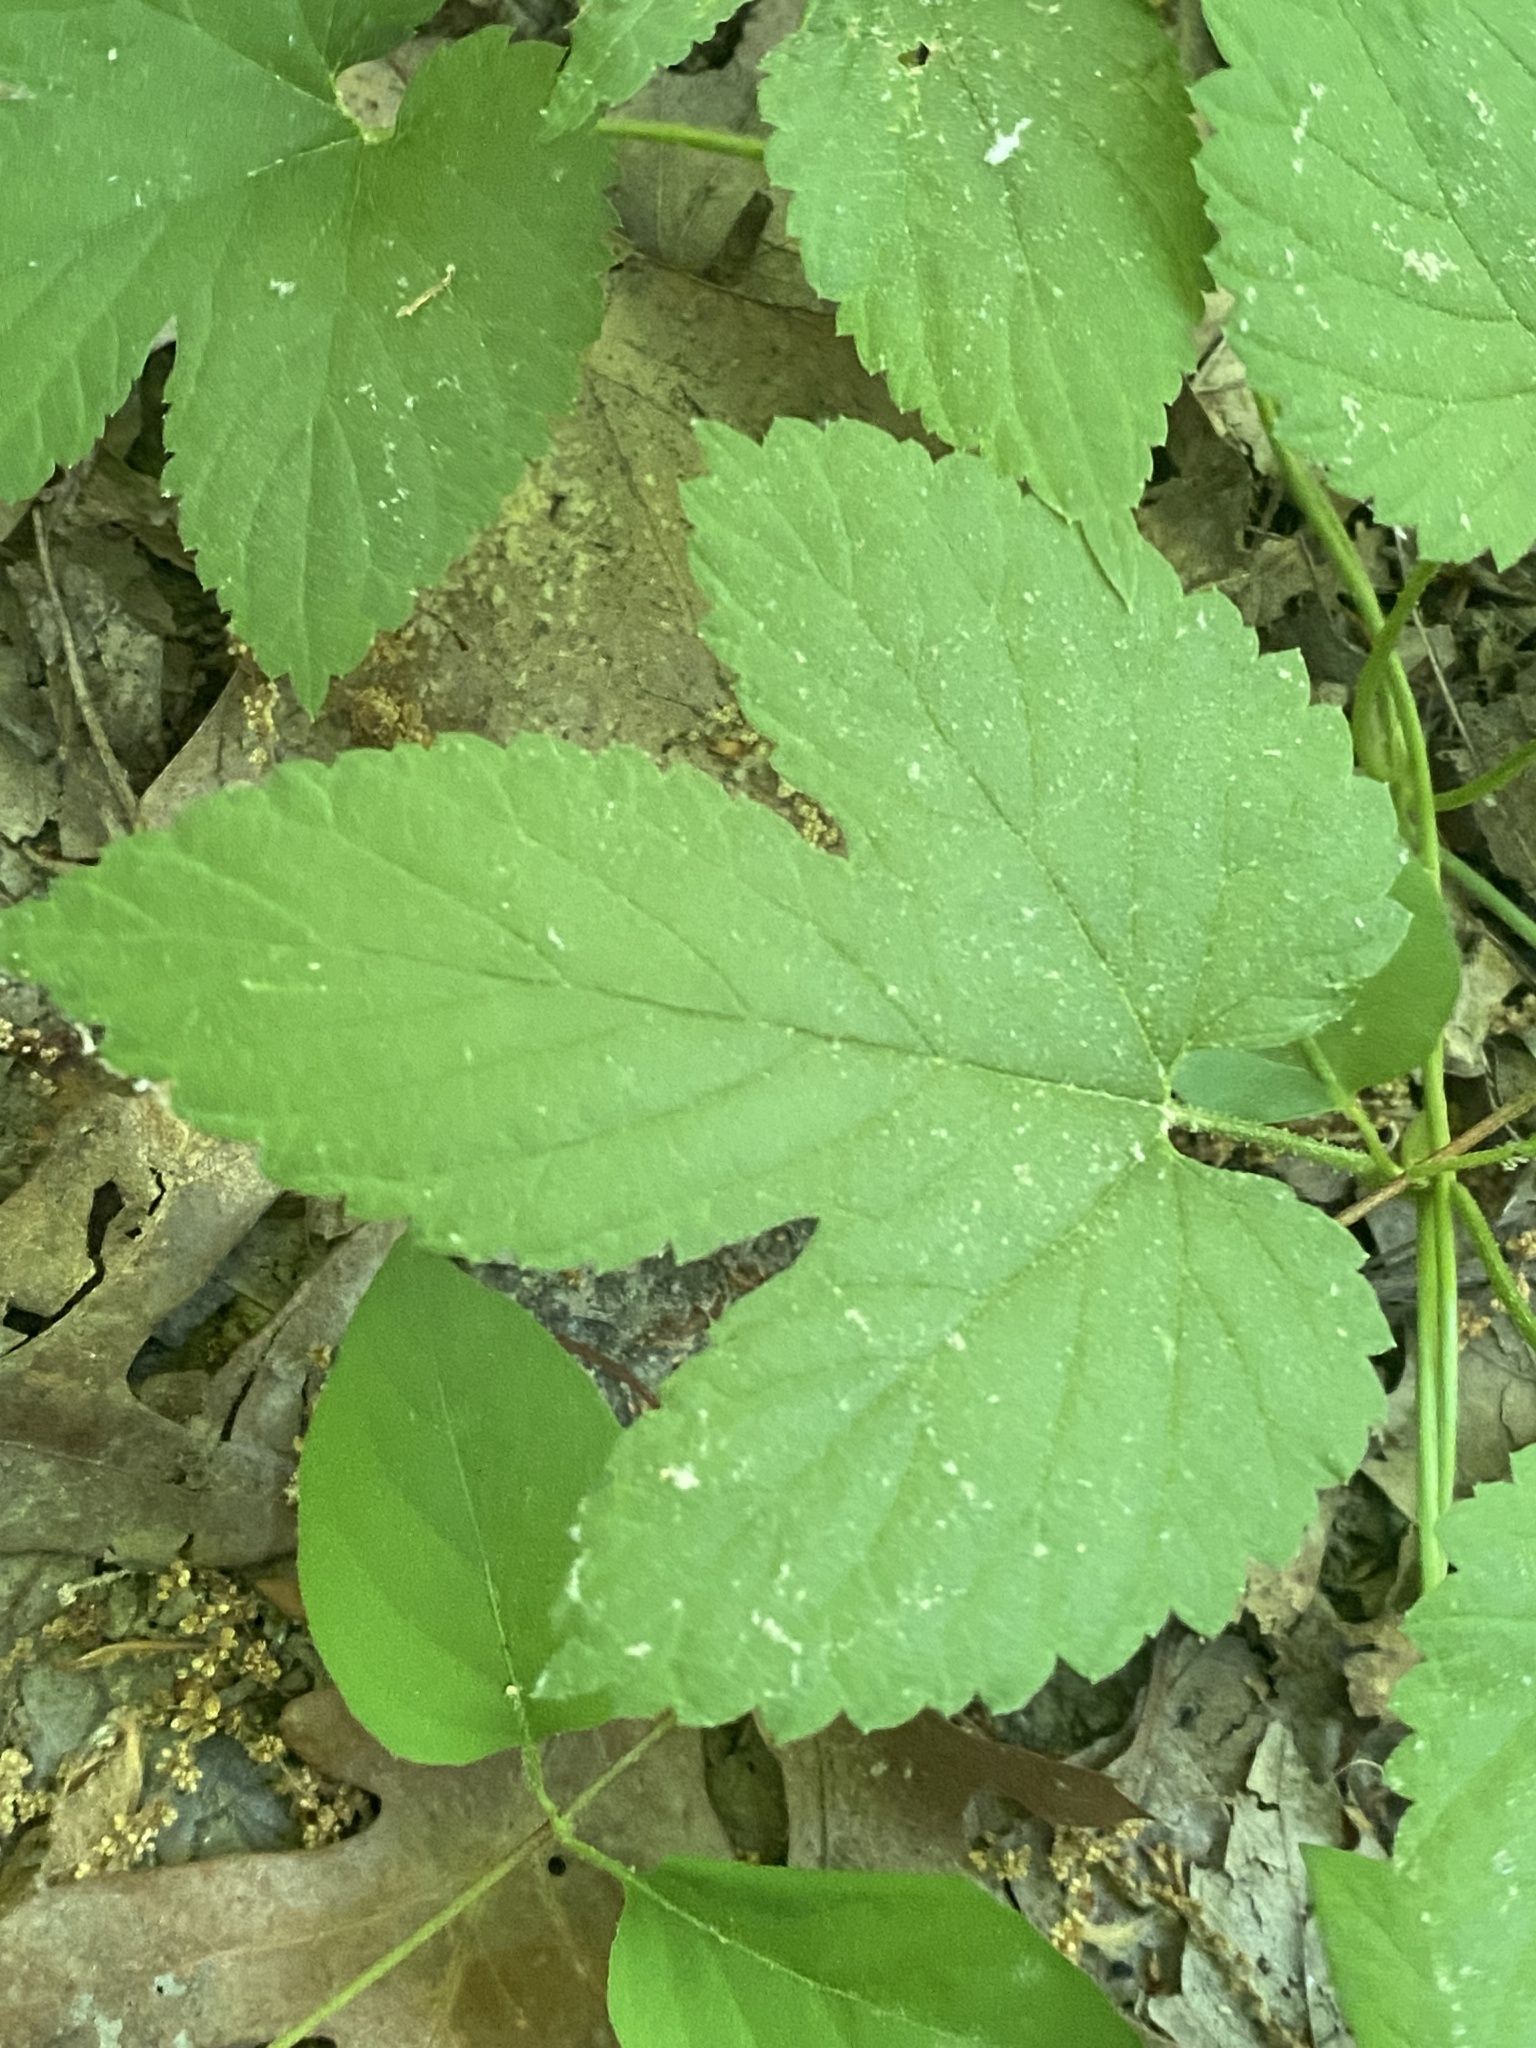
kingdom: Plantae
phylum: Tracheophyta
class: Magnoliopsida
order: Rosales
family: Cannabaceae
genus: Humulus
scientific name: Humulus lupulus
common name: Hop
